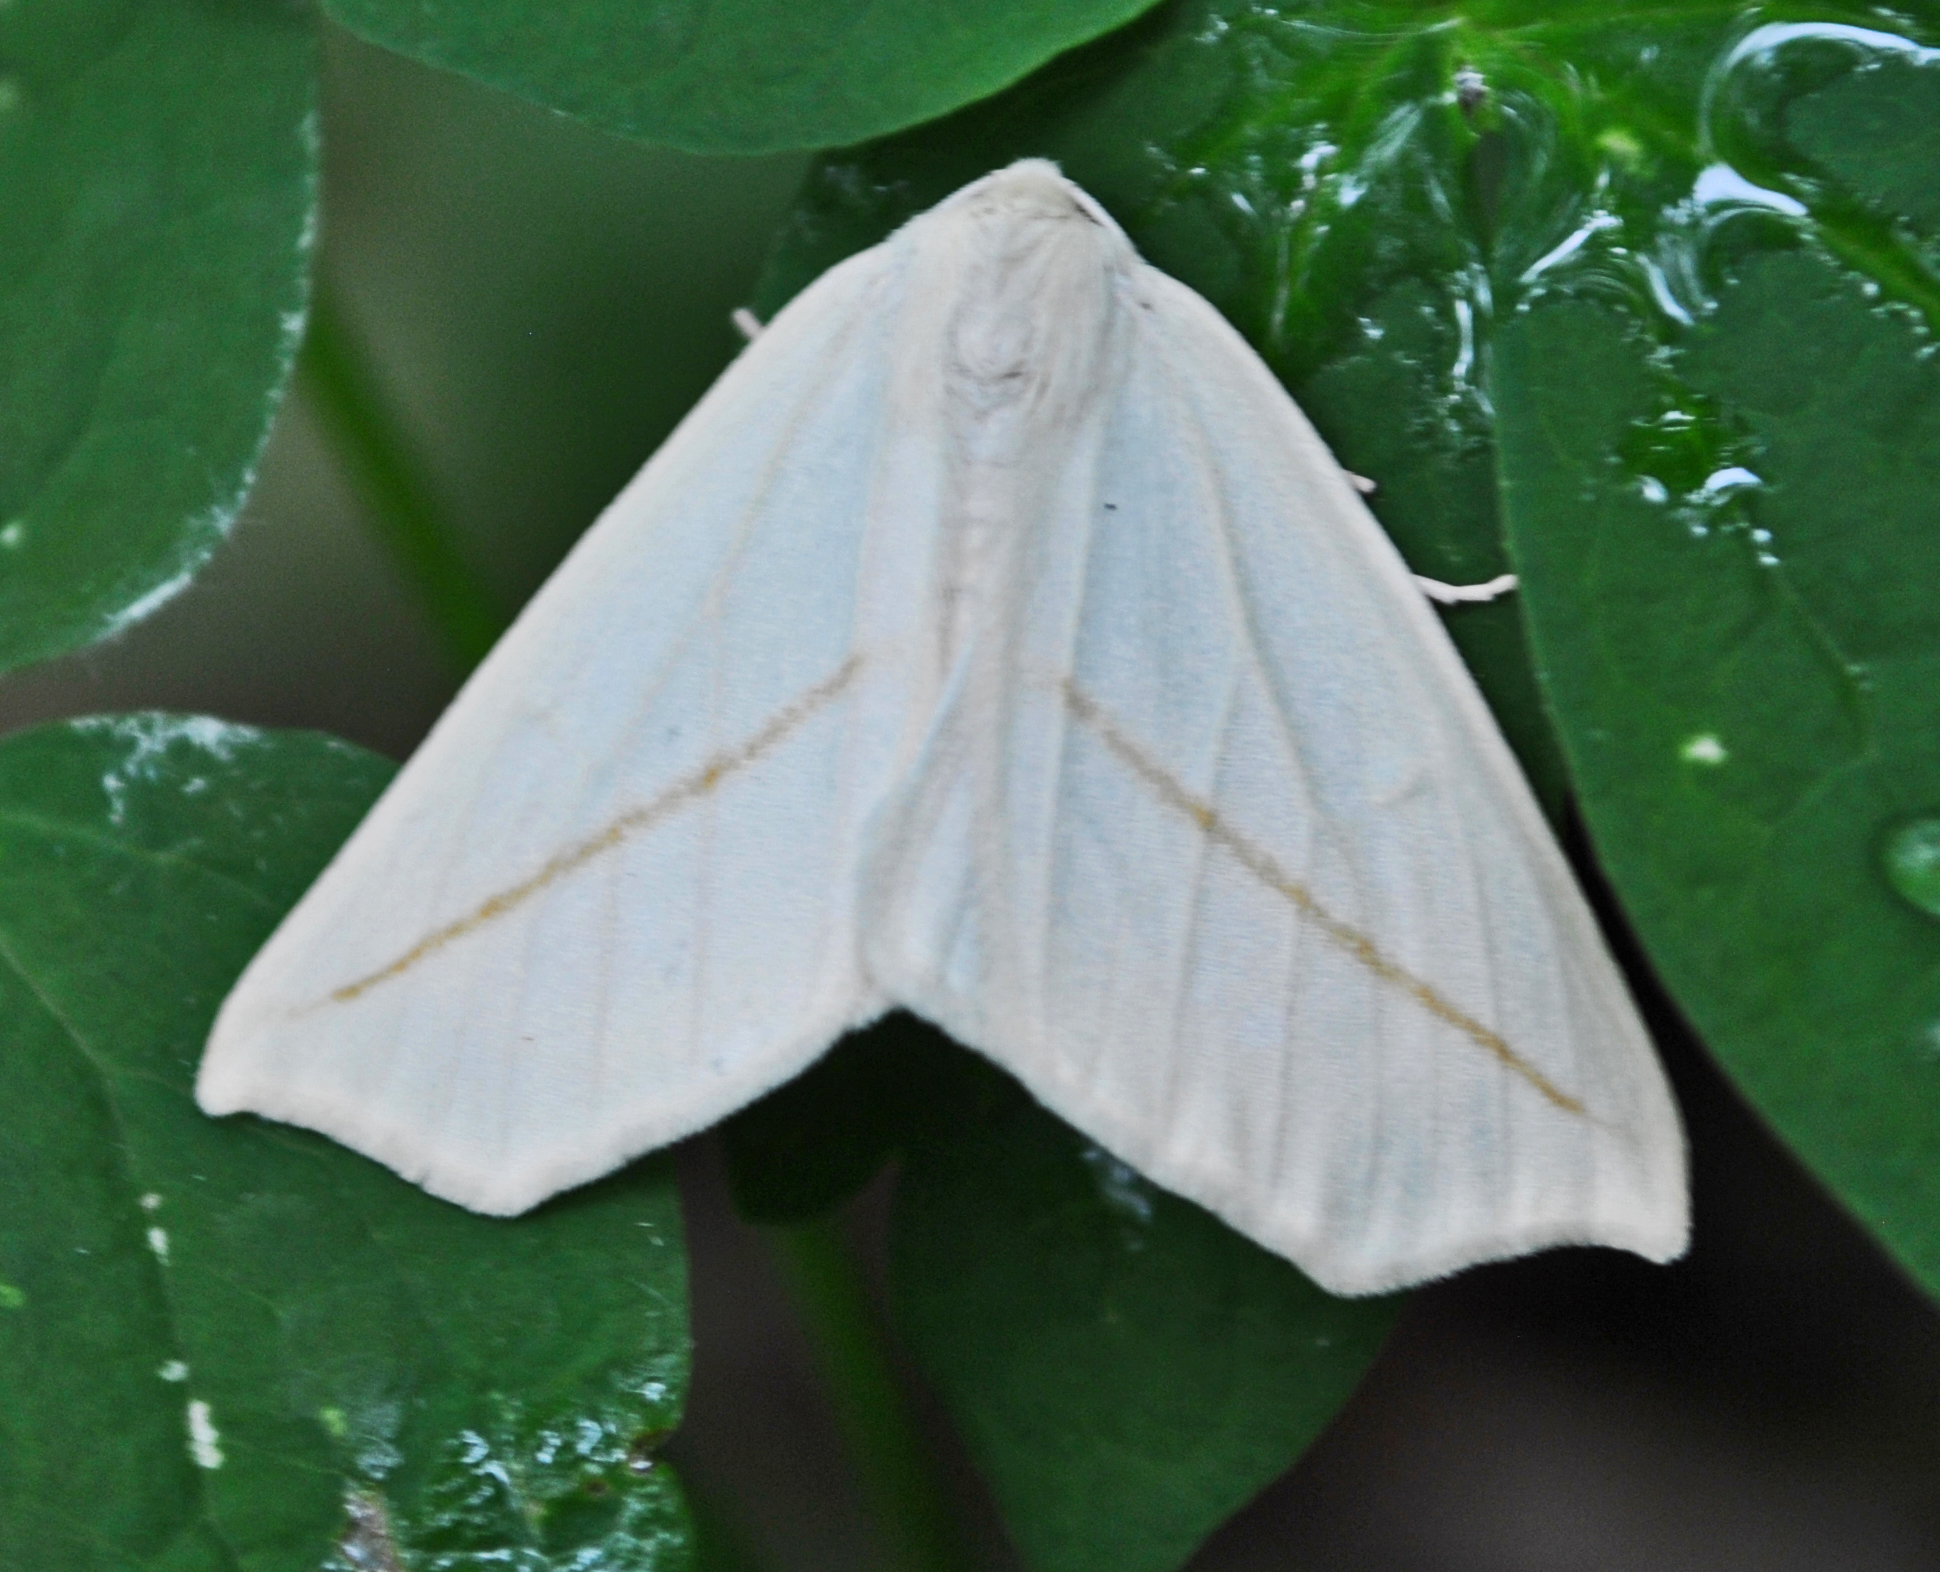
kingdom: Animalia
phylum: Arthropoda
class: Insecta
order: Lepidoptera
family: Geometridae
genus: Tetracis
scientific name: Tetracis cachexiata
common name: White slant-line
